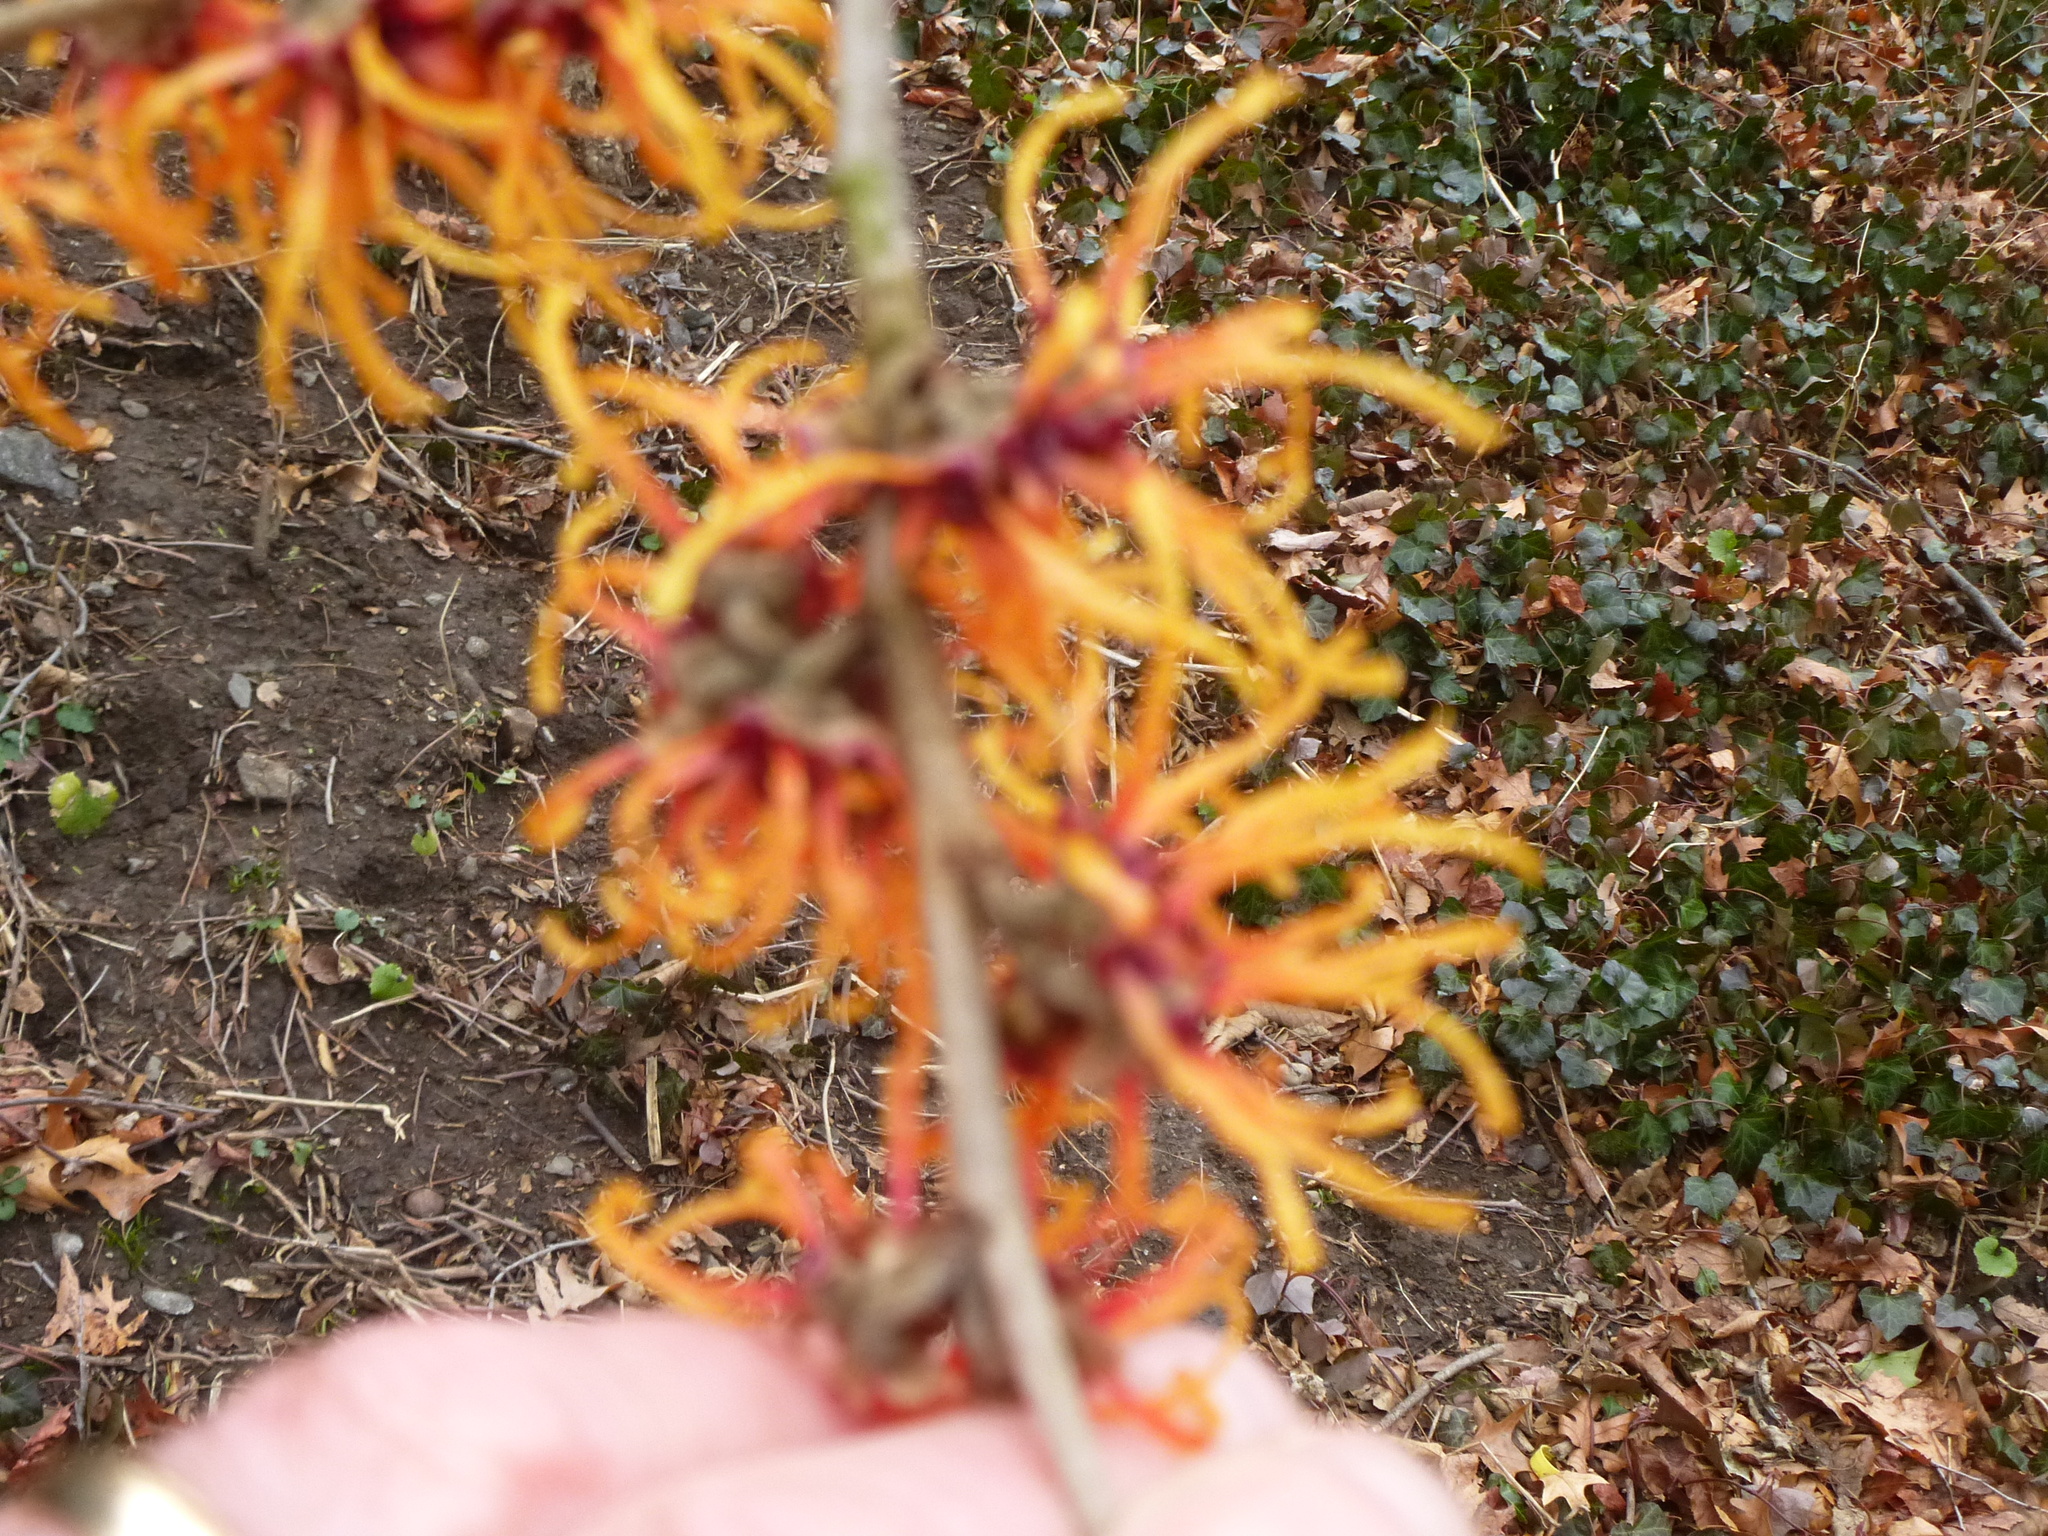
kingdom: Plantae
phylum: Tracheophyta
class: Magnoliopsida
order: Saxifragales
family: Hamamelidaceae
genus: Hamamelis
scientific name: Hamamelis virginiana
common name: Witch-hazel
